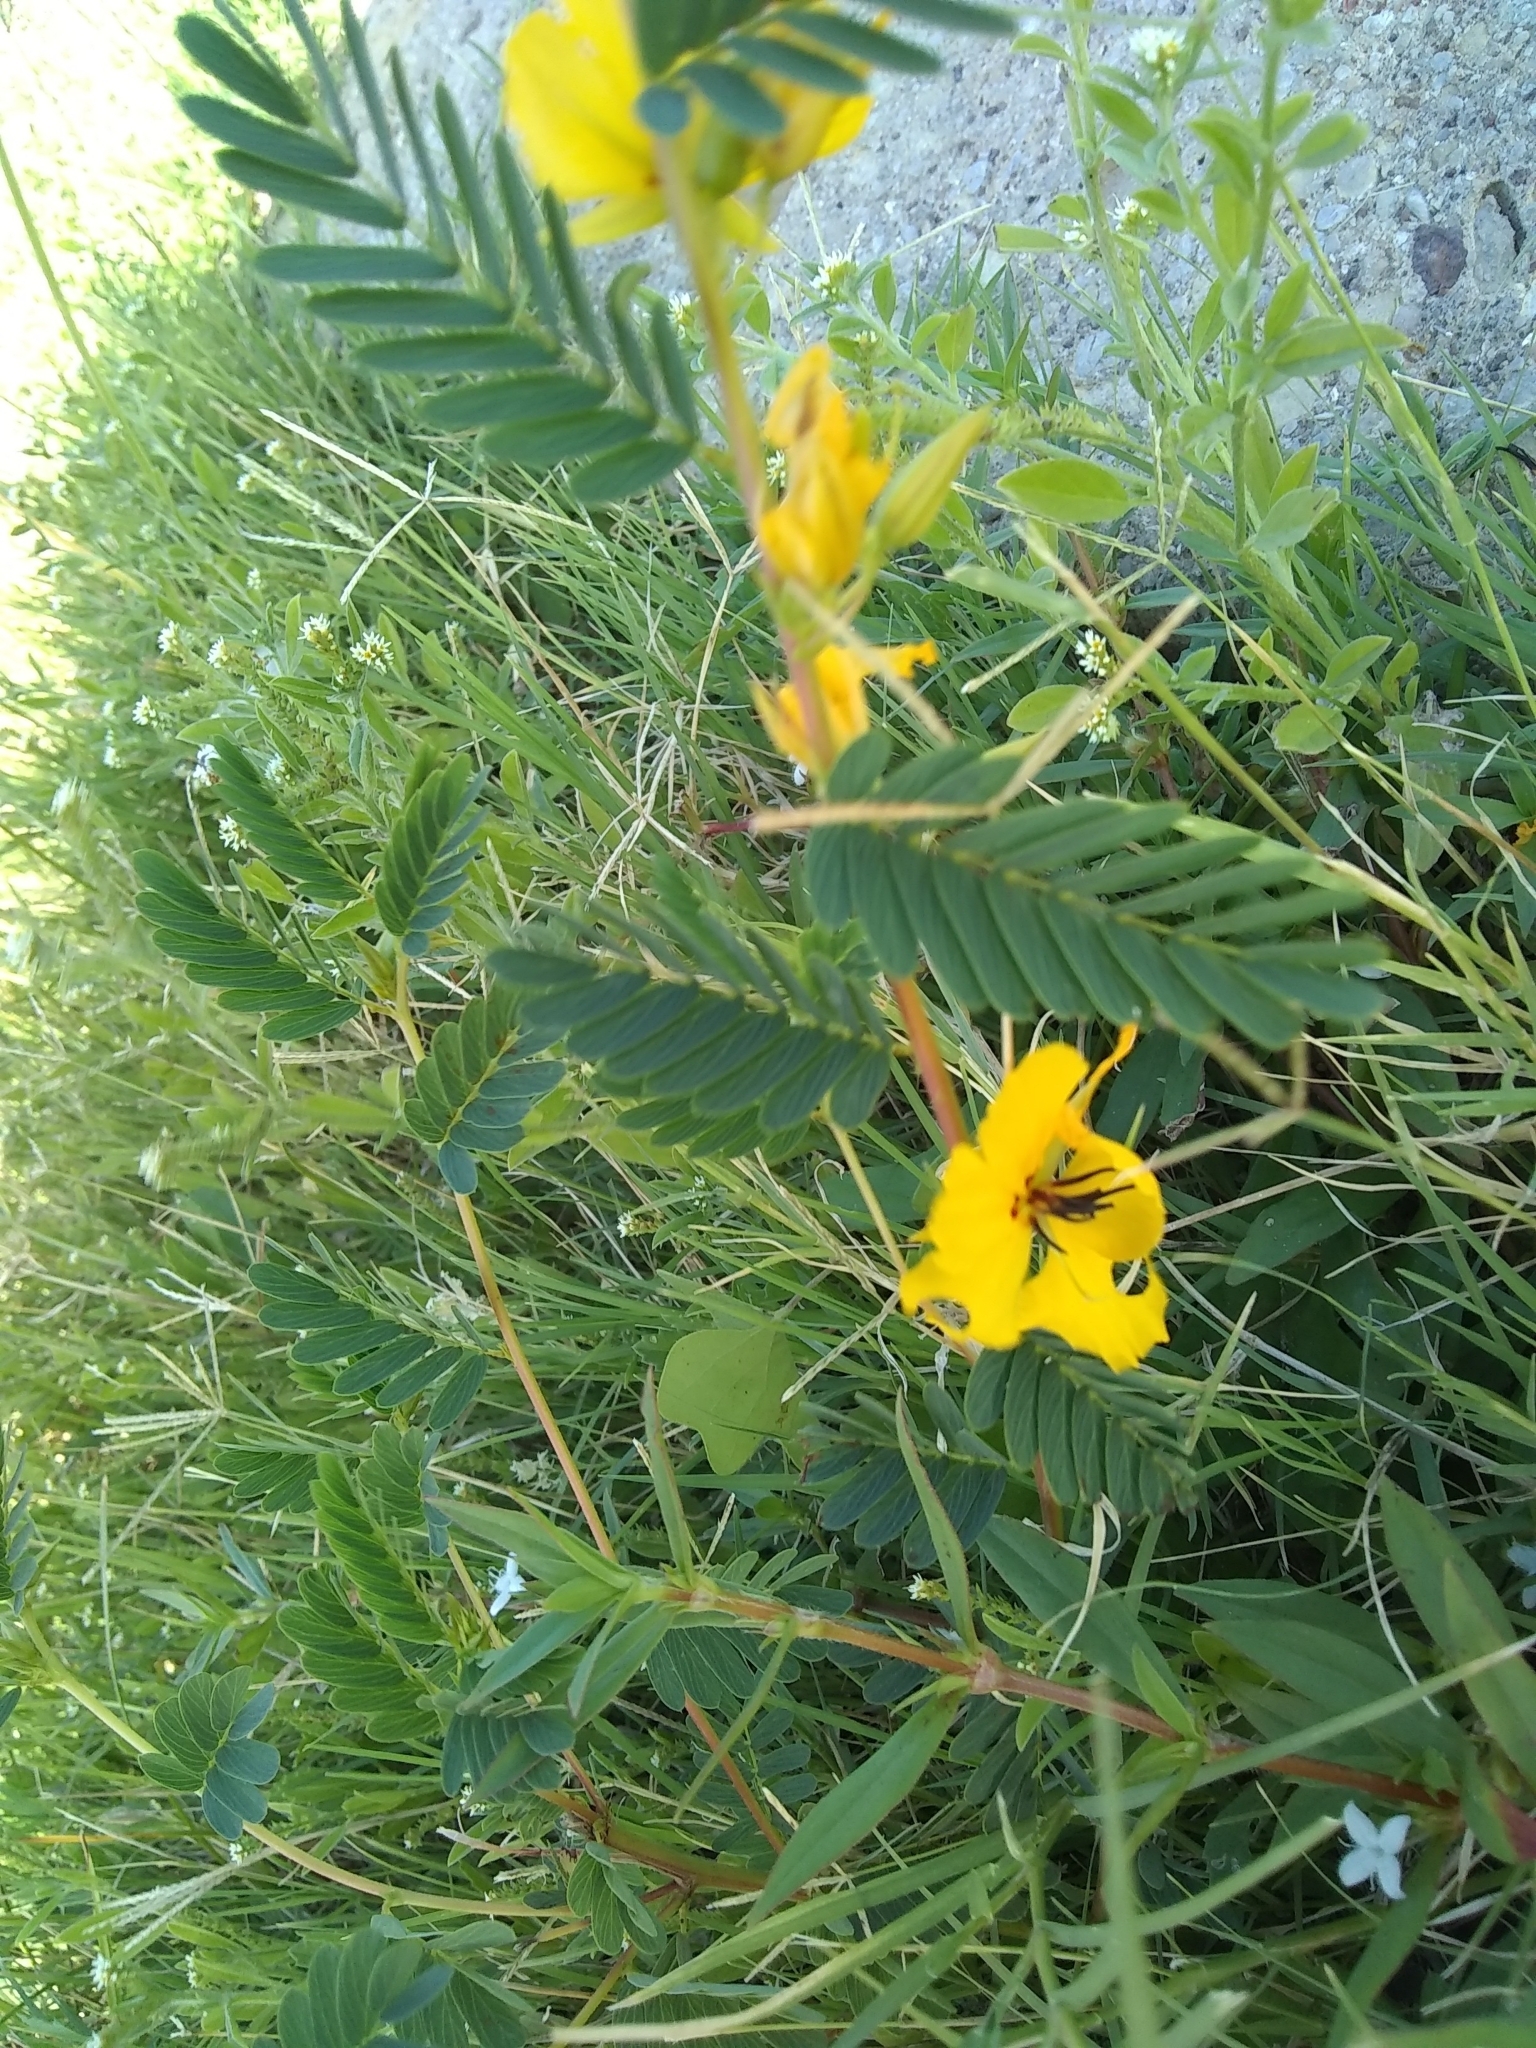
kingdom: Plantae
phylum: Tracheophyta
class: Magnoliopsida
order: Fabales
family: Fabaceae
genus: Chamaecrista
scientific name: Chamaecrista fasciculata
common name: Golden cassia
